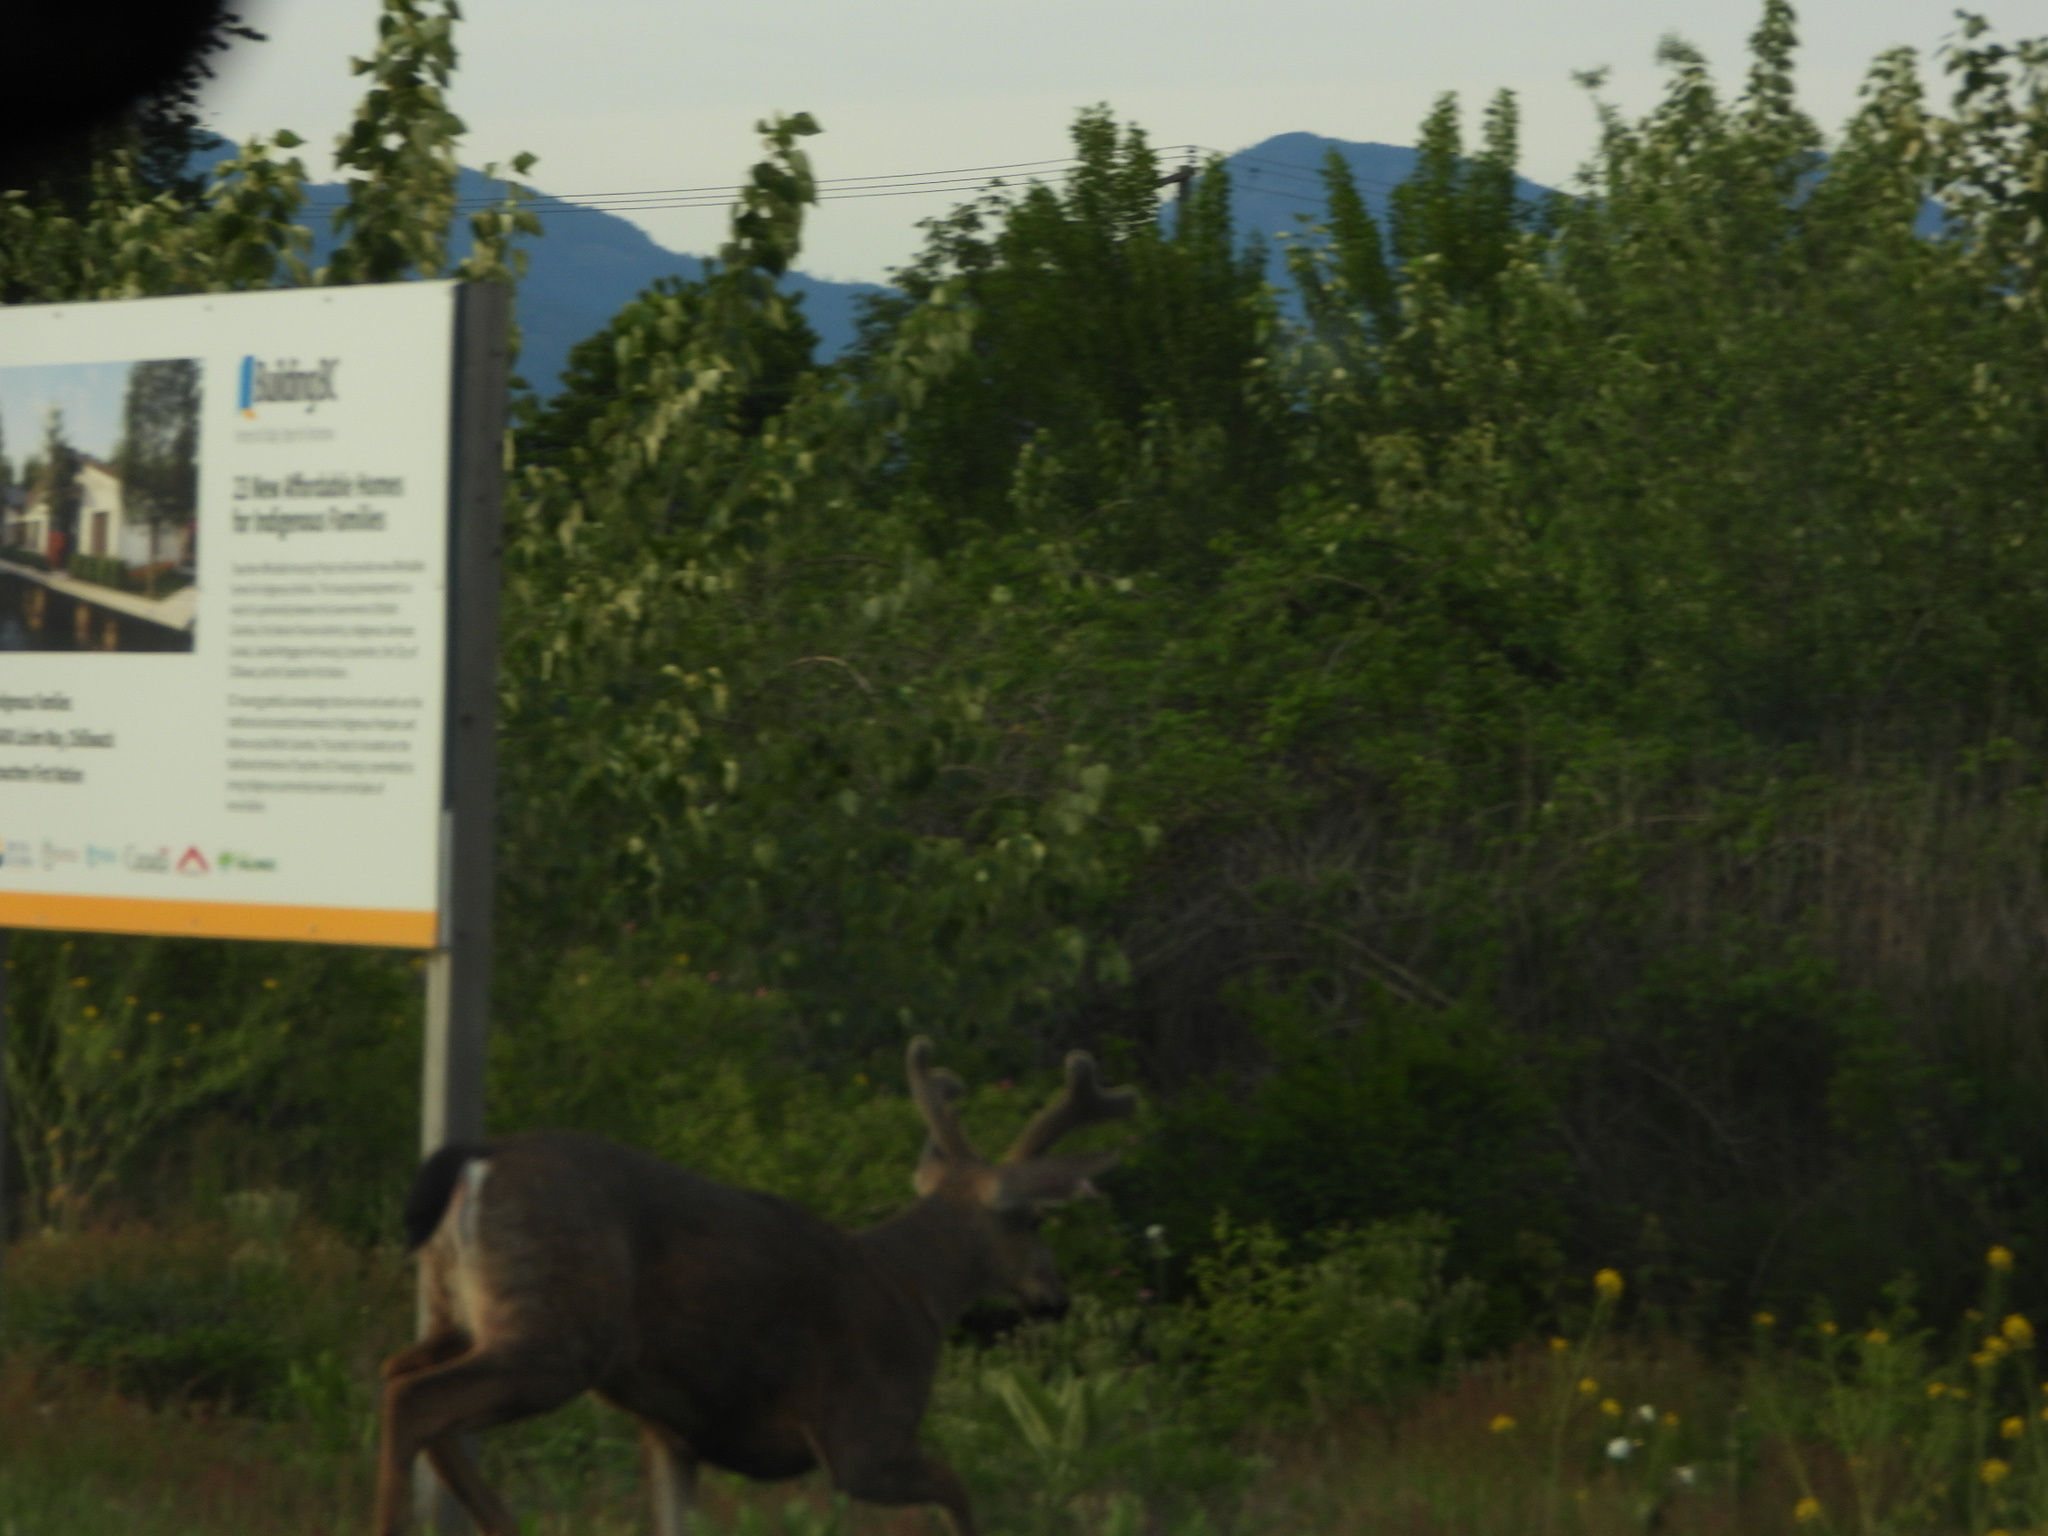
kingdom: Animalia
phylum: Chordata
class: Mammalia
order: Artiodactyla
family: Cervidae
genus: Odocoileus
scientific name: Odocoileus hemionus
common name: Mule deer
